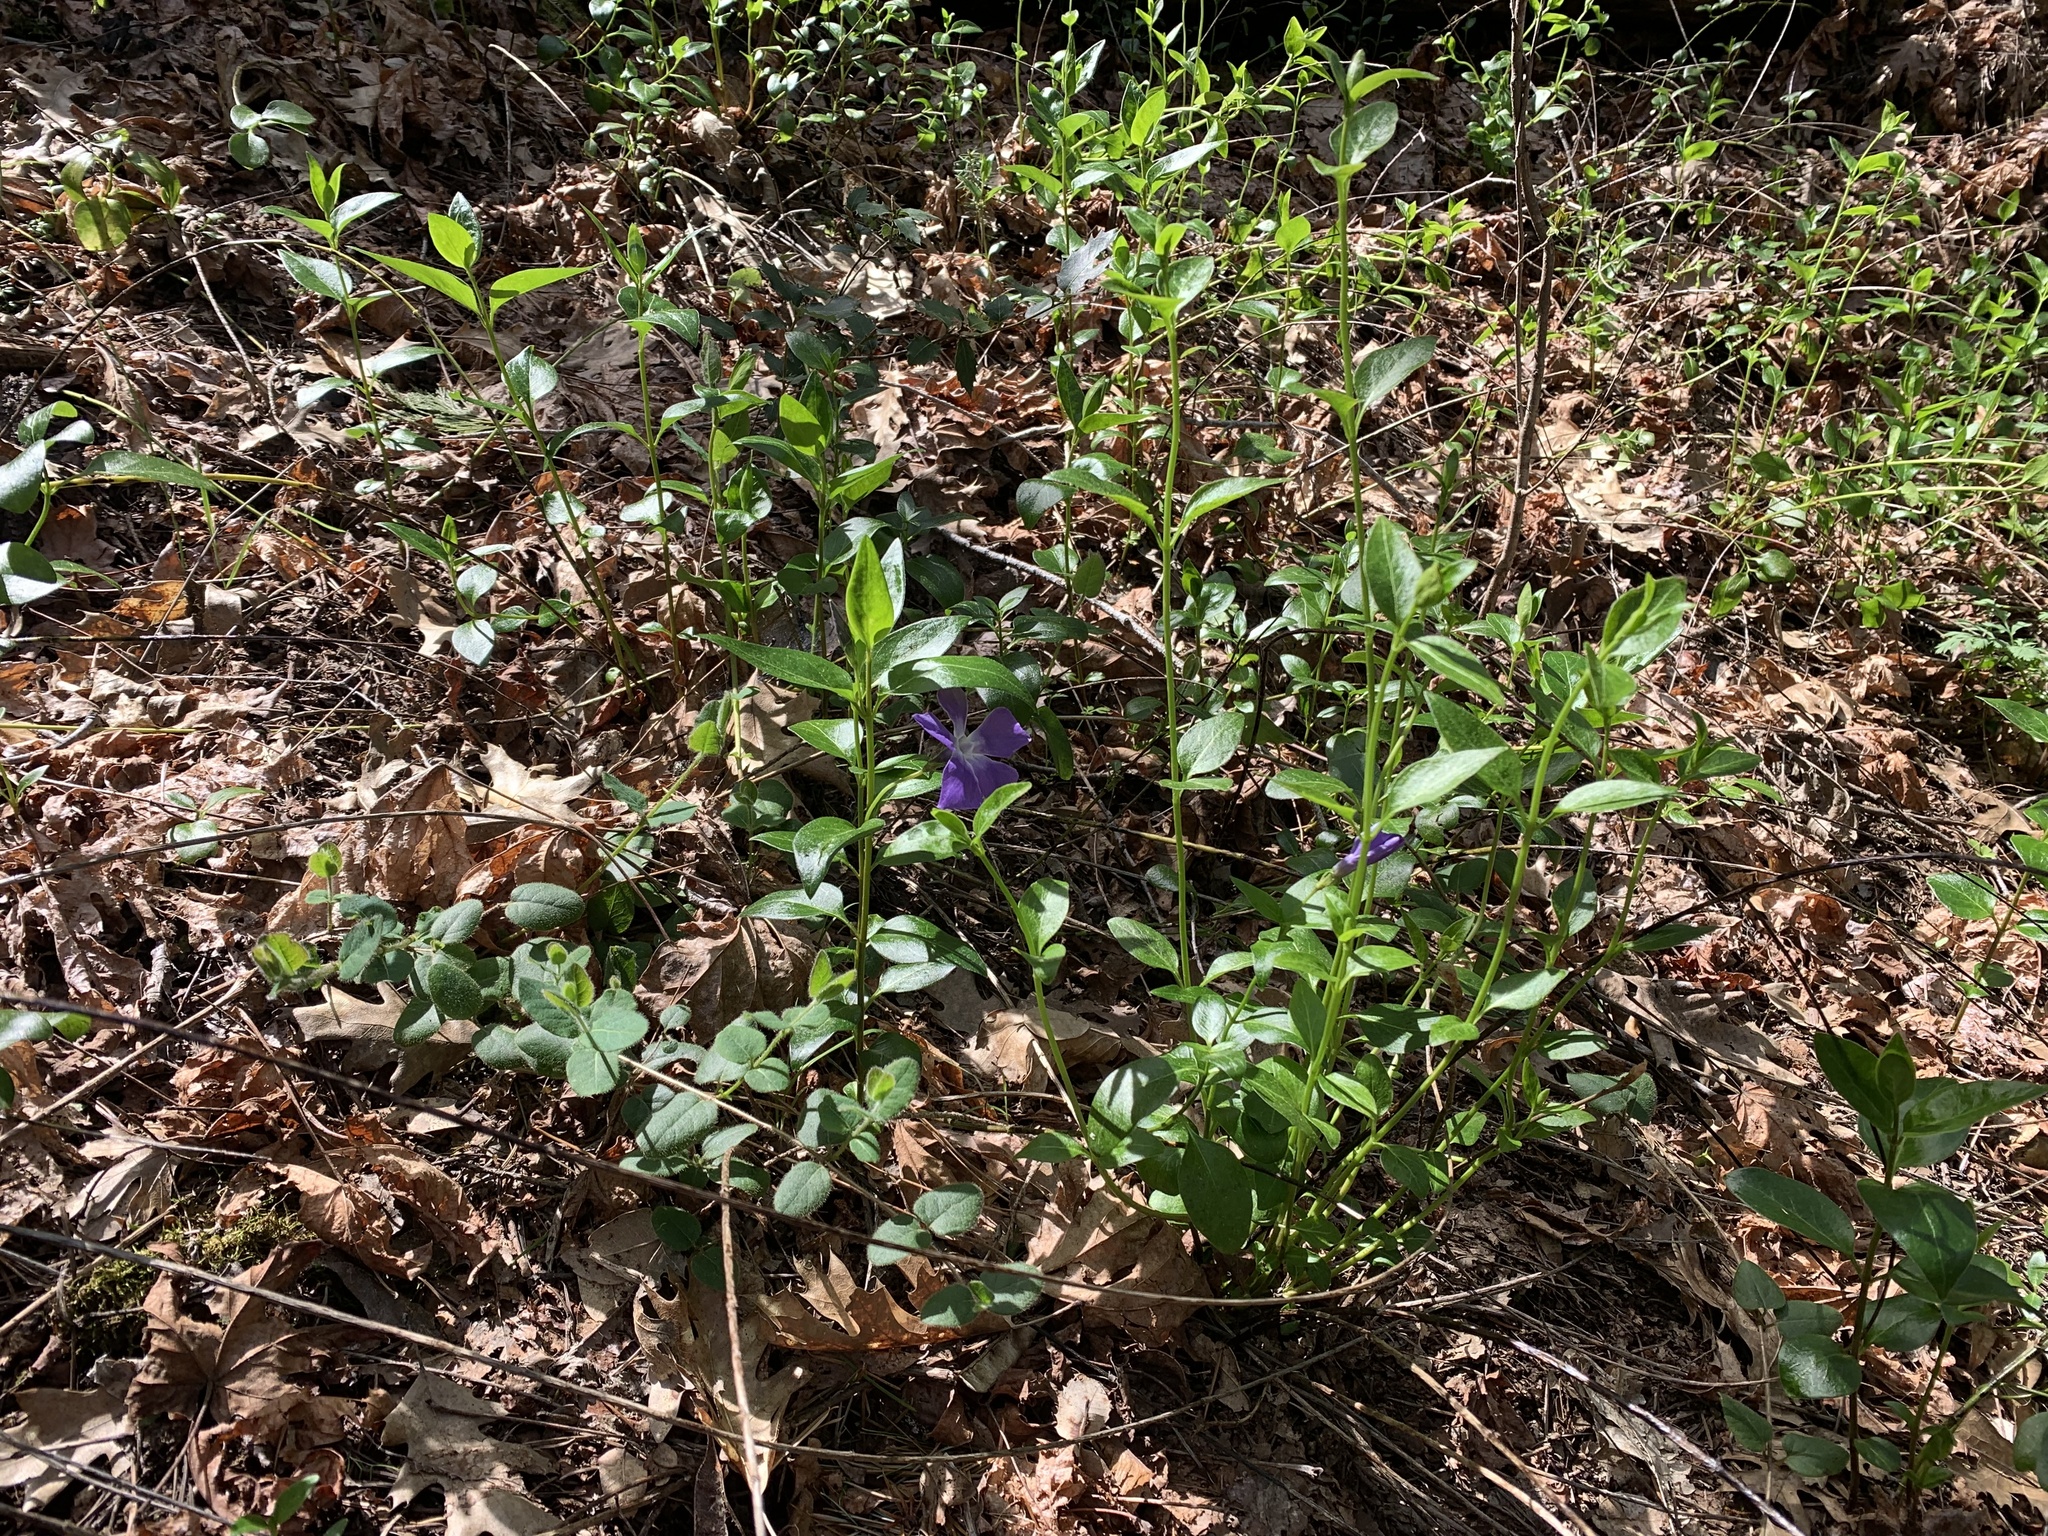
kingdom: Plantae
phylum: Tracheophyta
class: Magnoliopsida
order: Gentianales
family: Apocynaceae
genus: Vinca
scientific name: Vinca major
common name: Greater periwinkle
